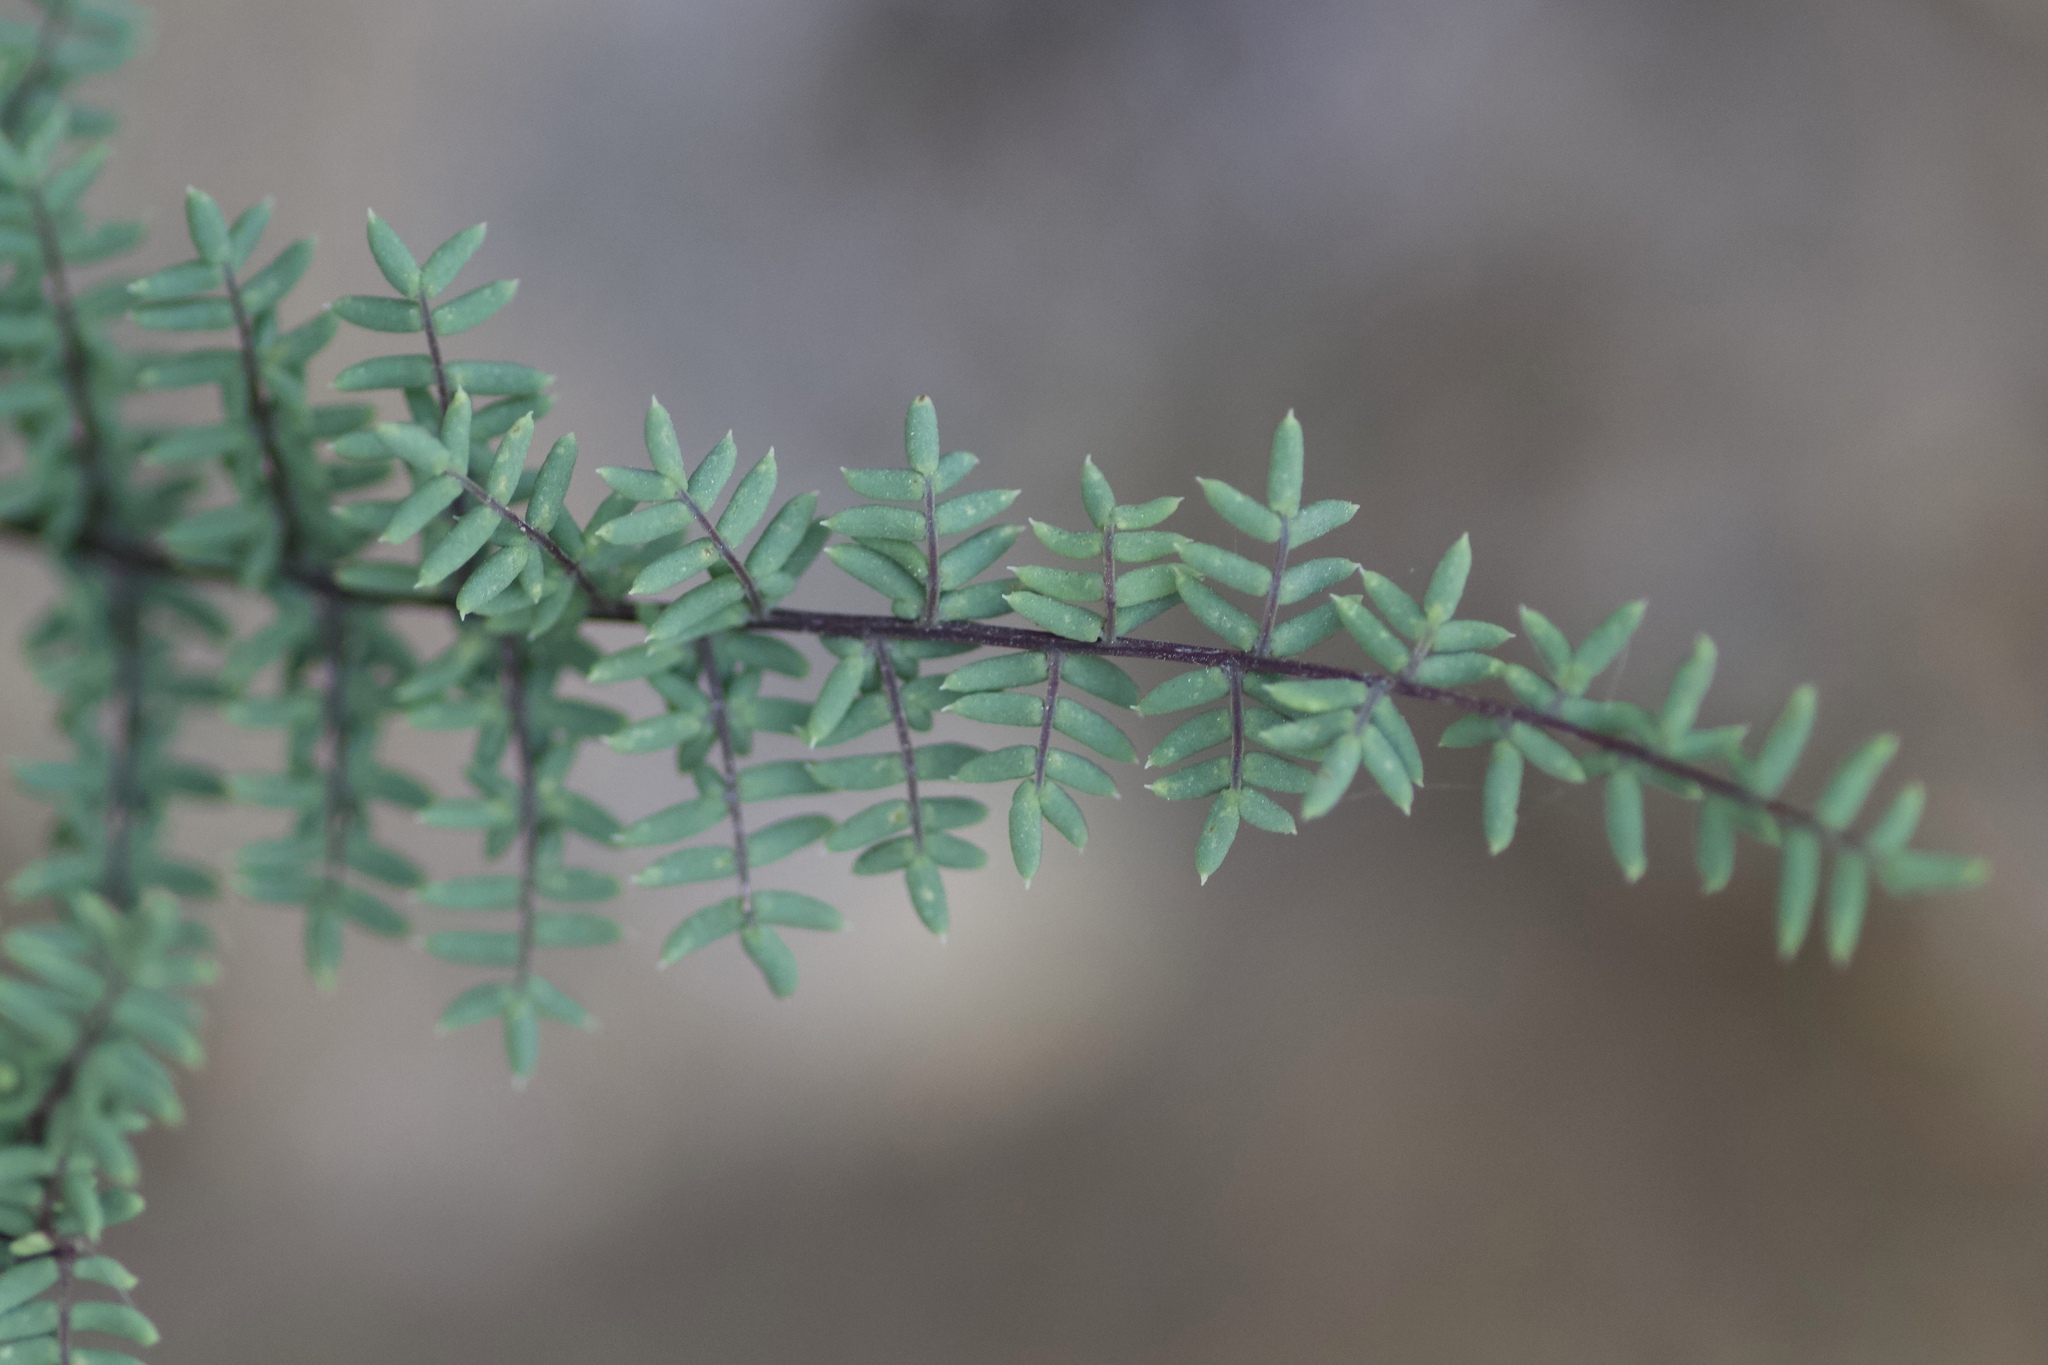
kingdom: Plantae
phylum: Tracheophyta
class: Polypodiopsida
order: Polypodiales
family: Pteridaceae
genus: Pellaea
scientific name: Pellaea mucronata
